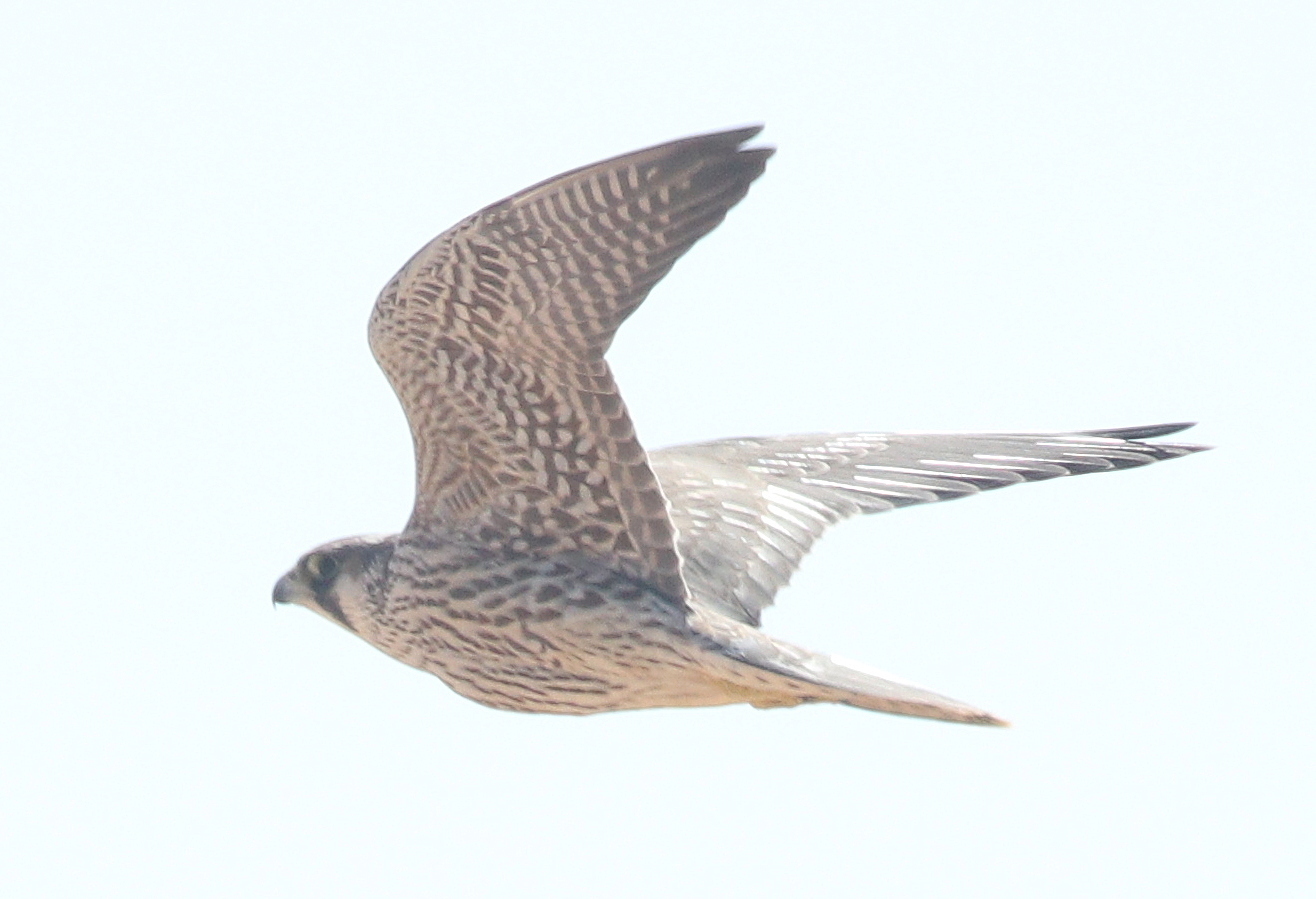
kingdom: Animalia
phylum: Chordata
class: Aves
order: Falconiformes
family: Falconidae
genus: Falco
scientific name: Falco peregrinus
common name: Peregrine falcon
